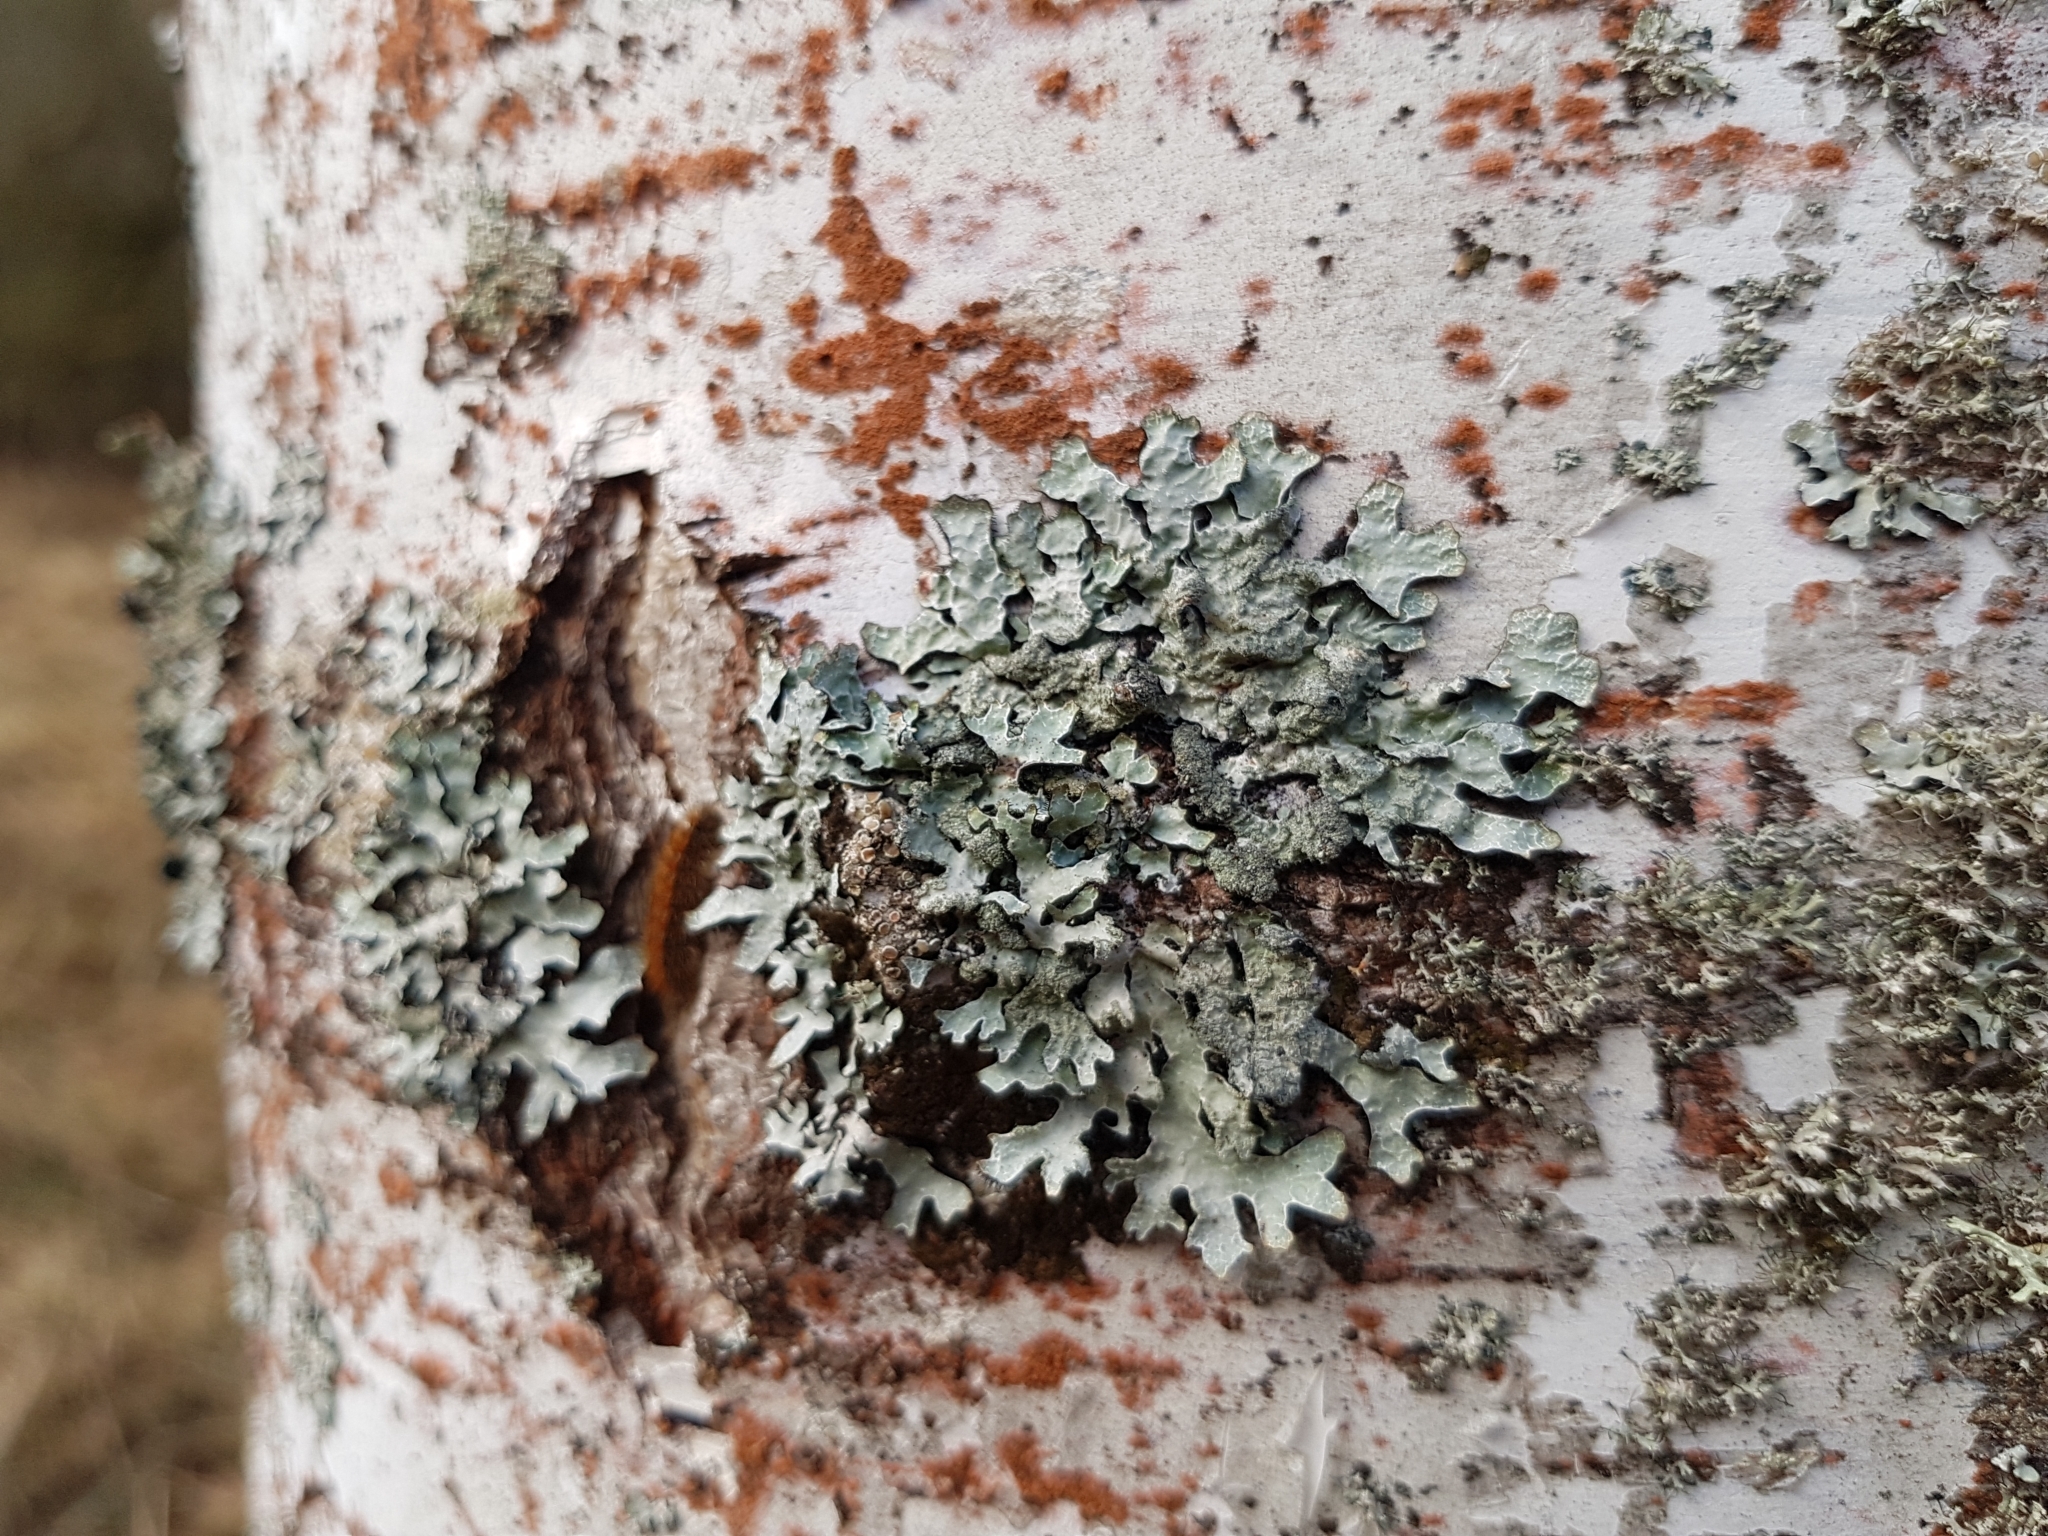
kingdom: Fungi
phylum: Ascomycota
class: Lecanoromycetes
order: Lecanorales
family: Parmeliaceae
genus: Parmelia
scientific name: Parmelia sulcata
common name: Netted shield lichen
